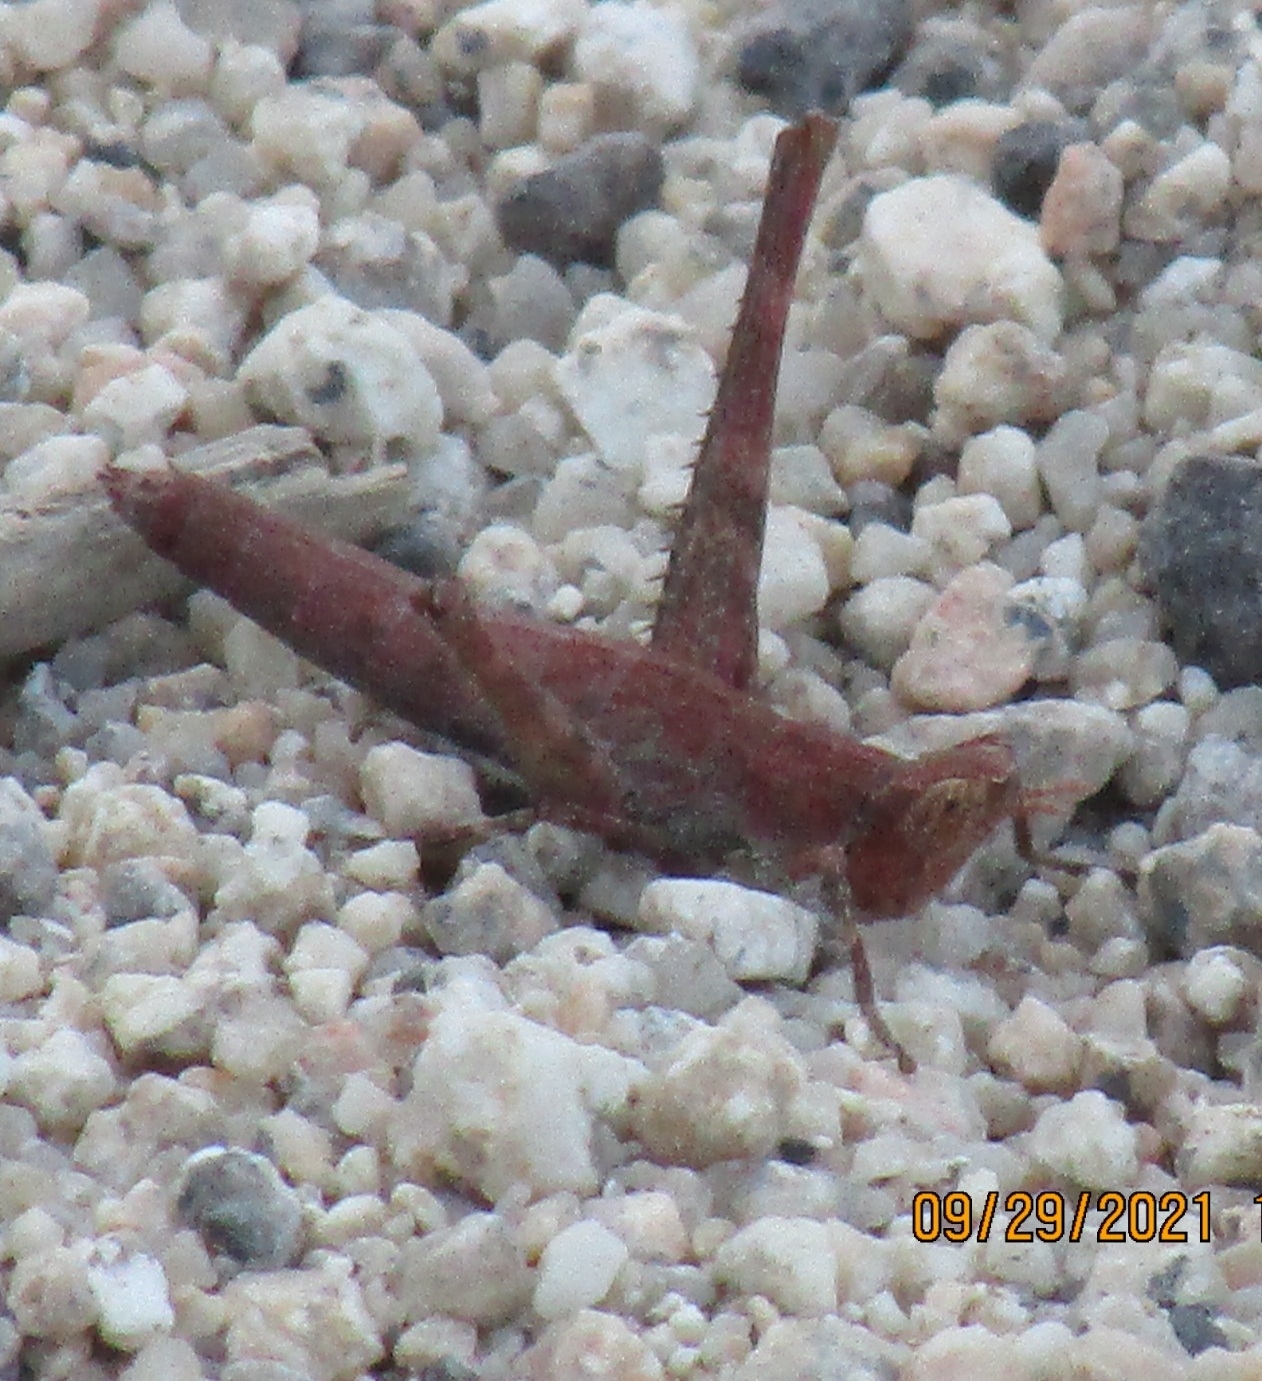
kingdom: Animalia
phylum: Arthropoda
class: Insecta
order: Orthoptera
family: Eumastacidae
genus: Morsea
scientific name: Morsea californica
